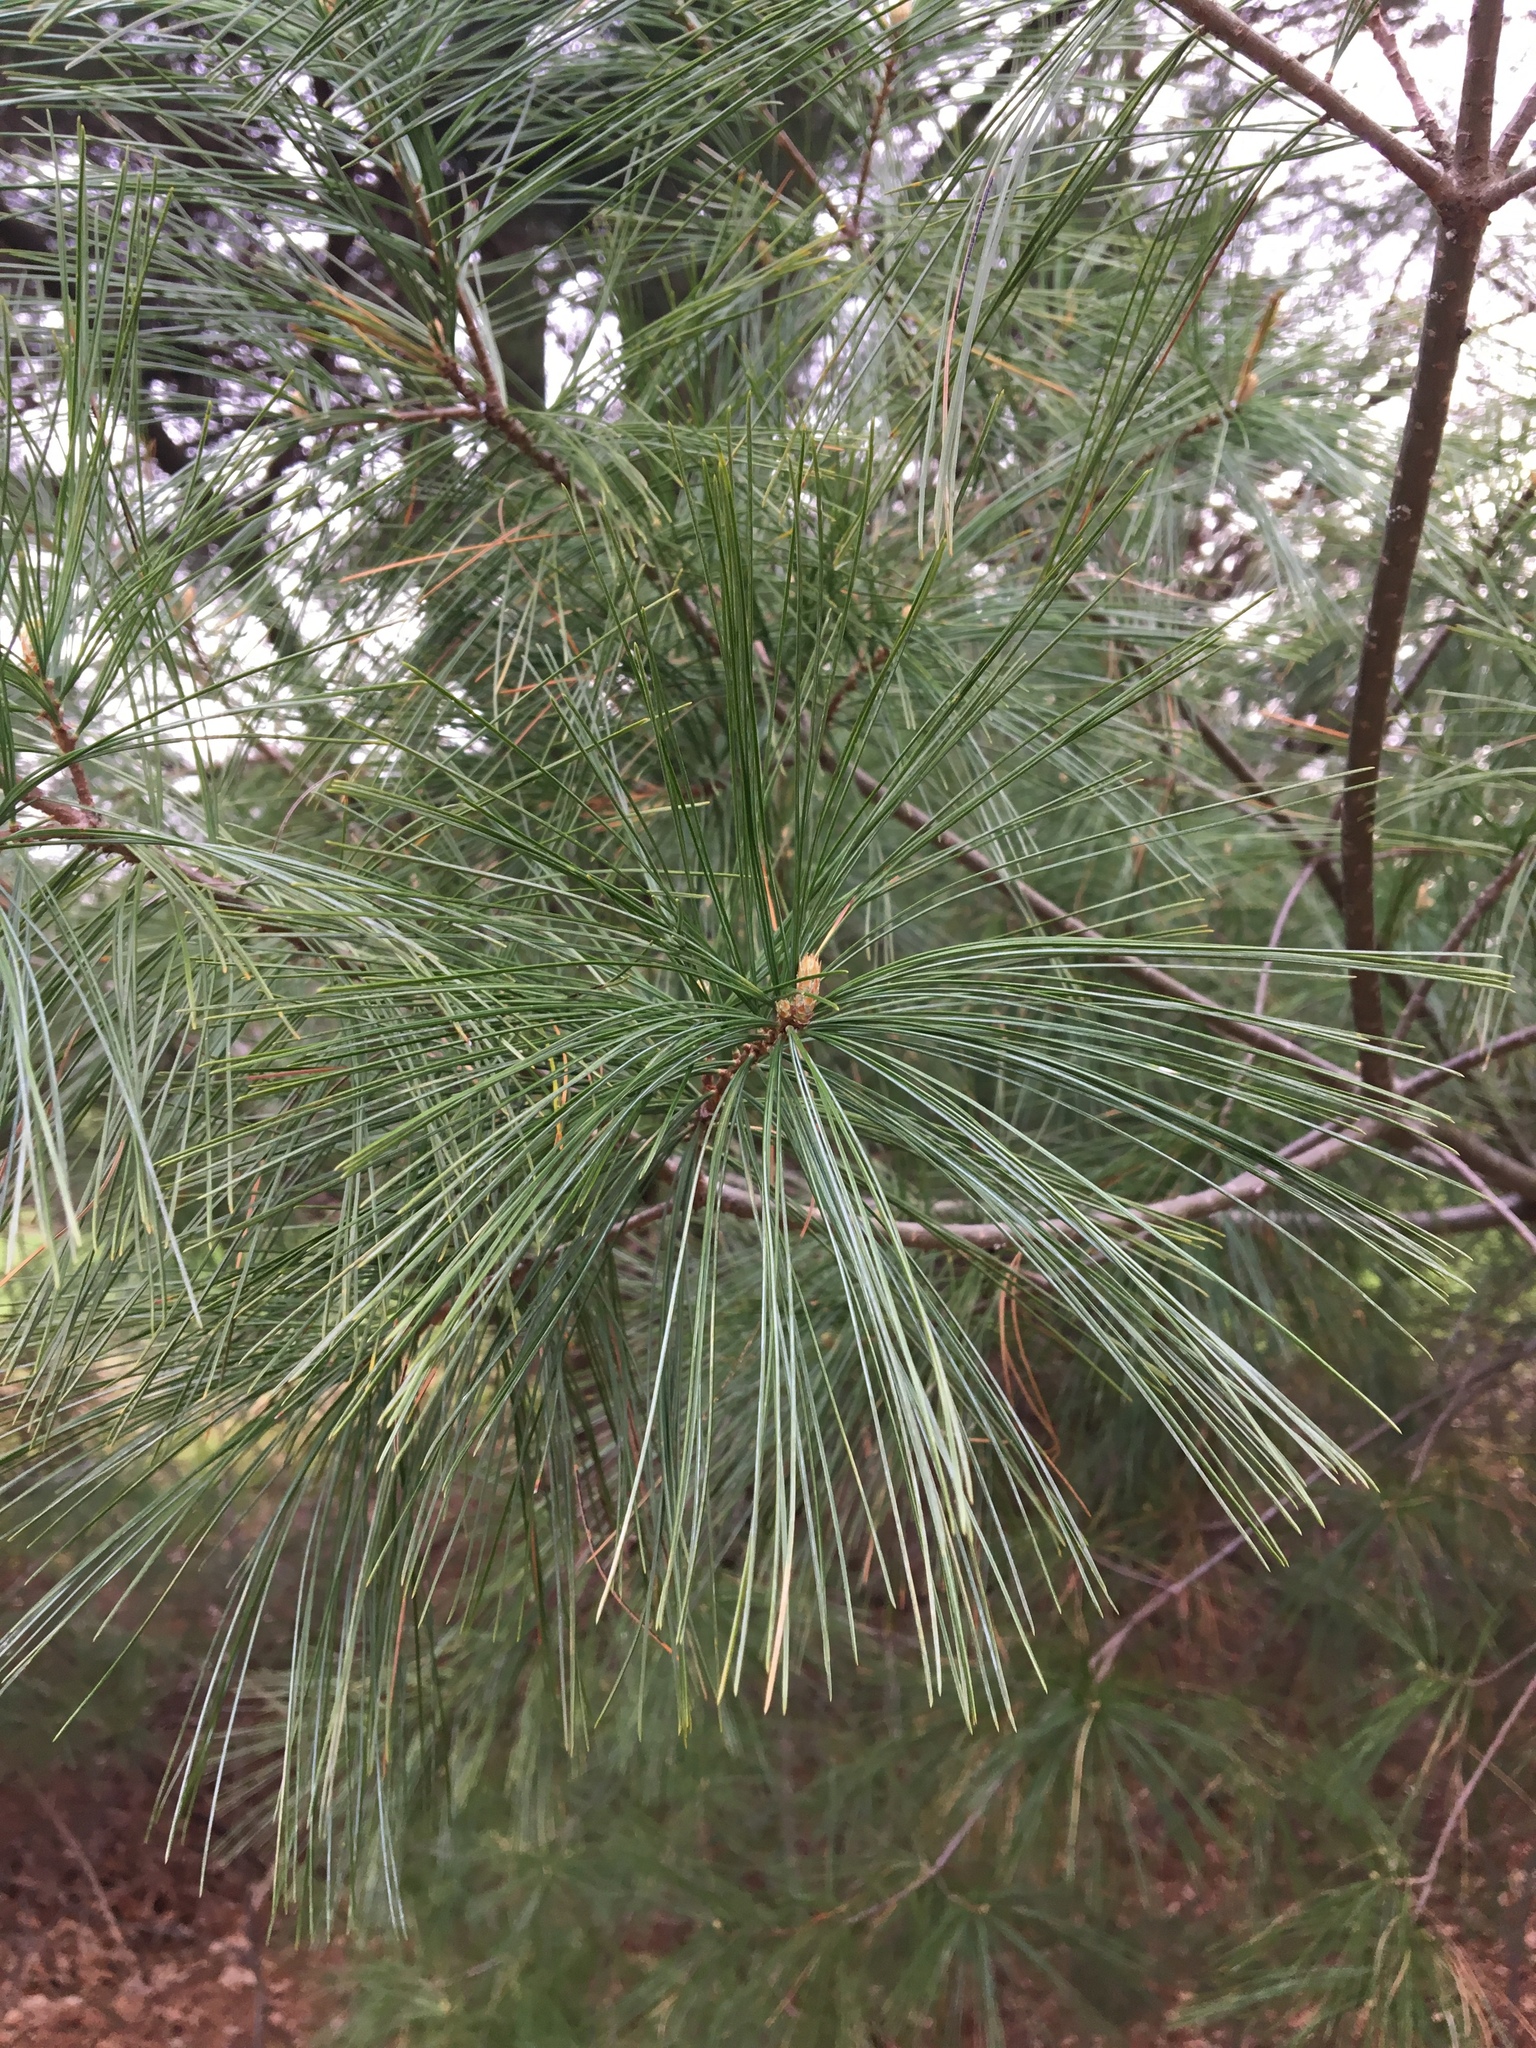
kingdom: Plantae
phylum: Tracheophyta
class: Pinopsida
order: Pinales
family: Pinaceae
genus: Pinus
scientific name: Pinus strobus
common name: Weymouth pine
